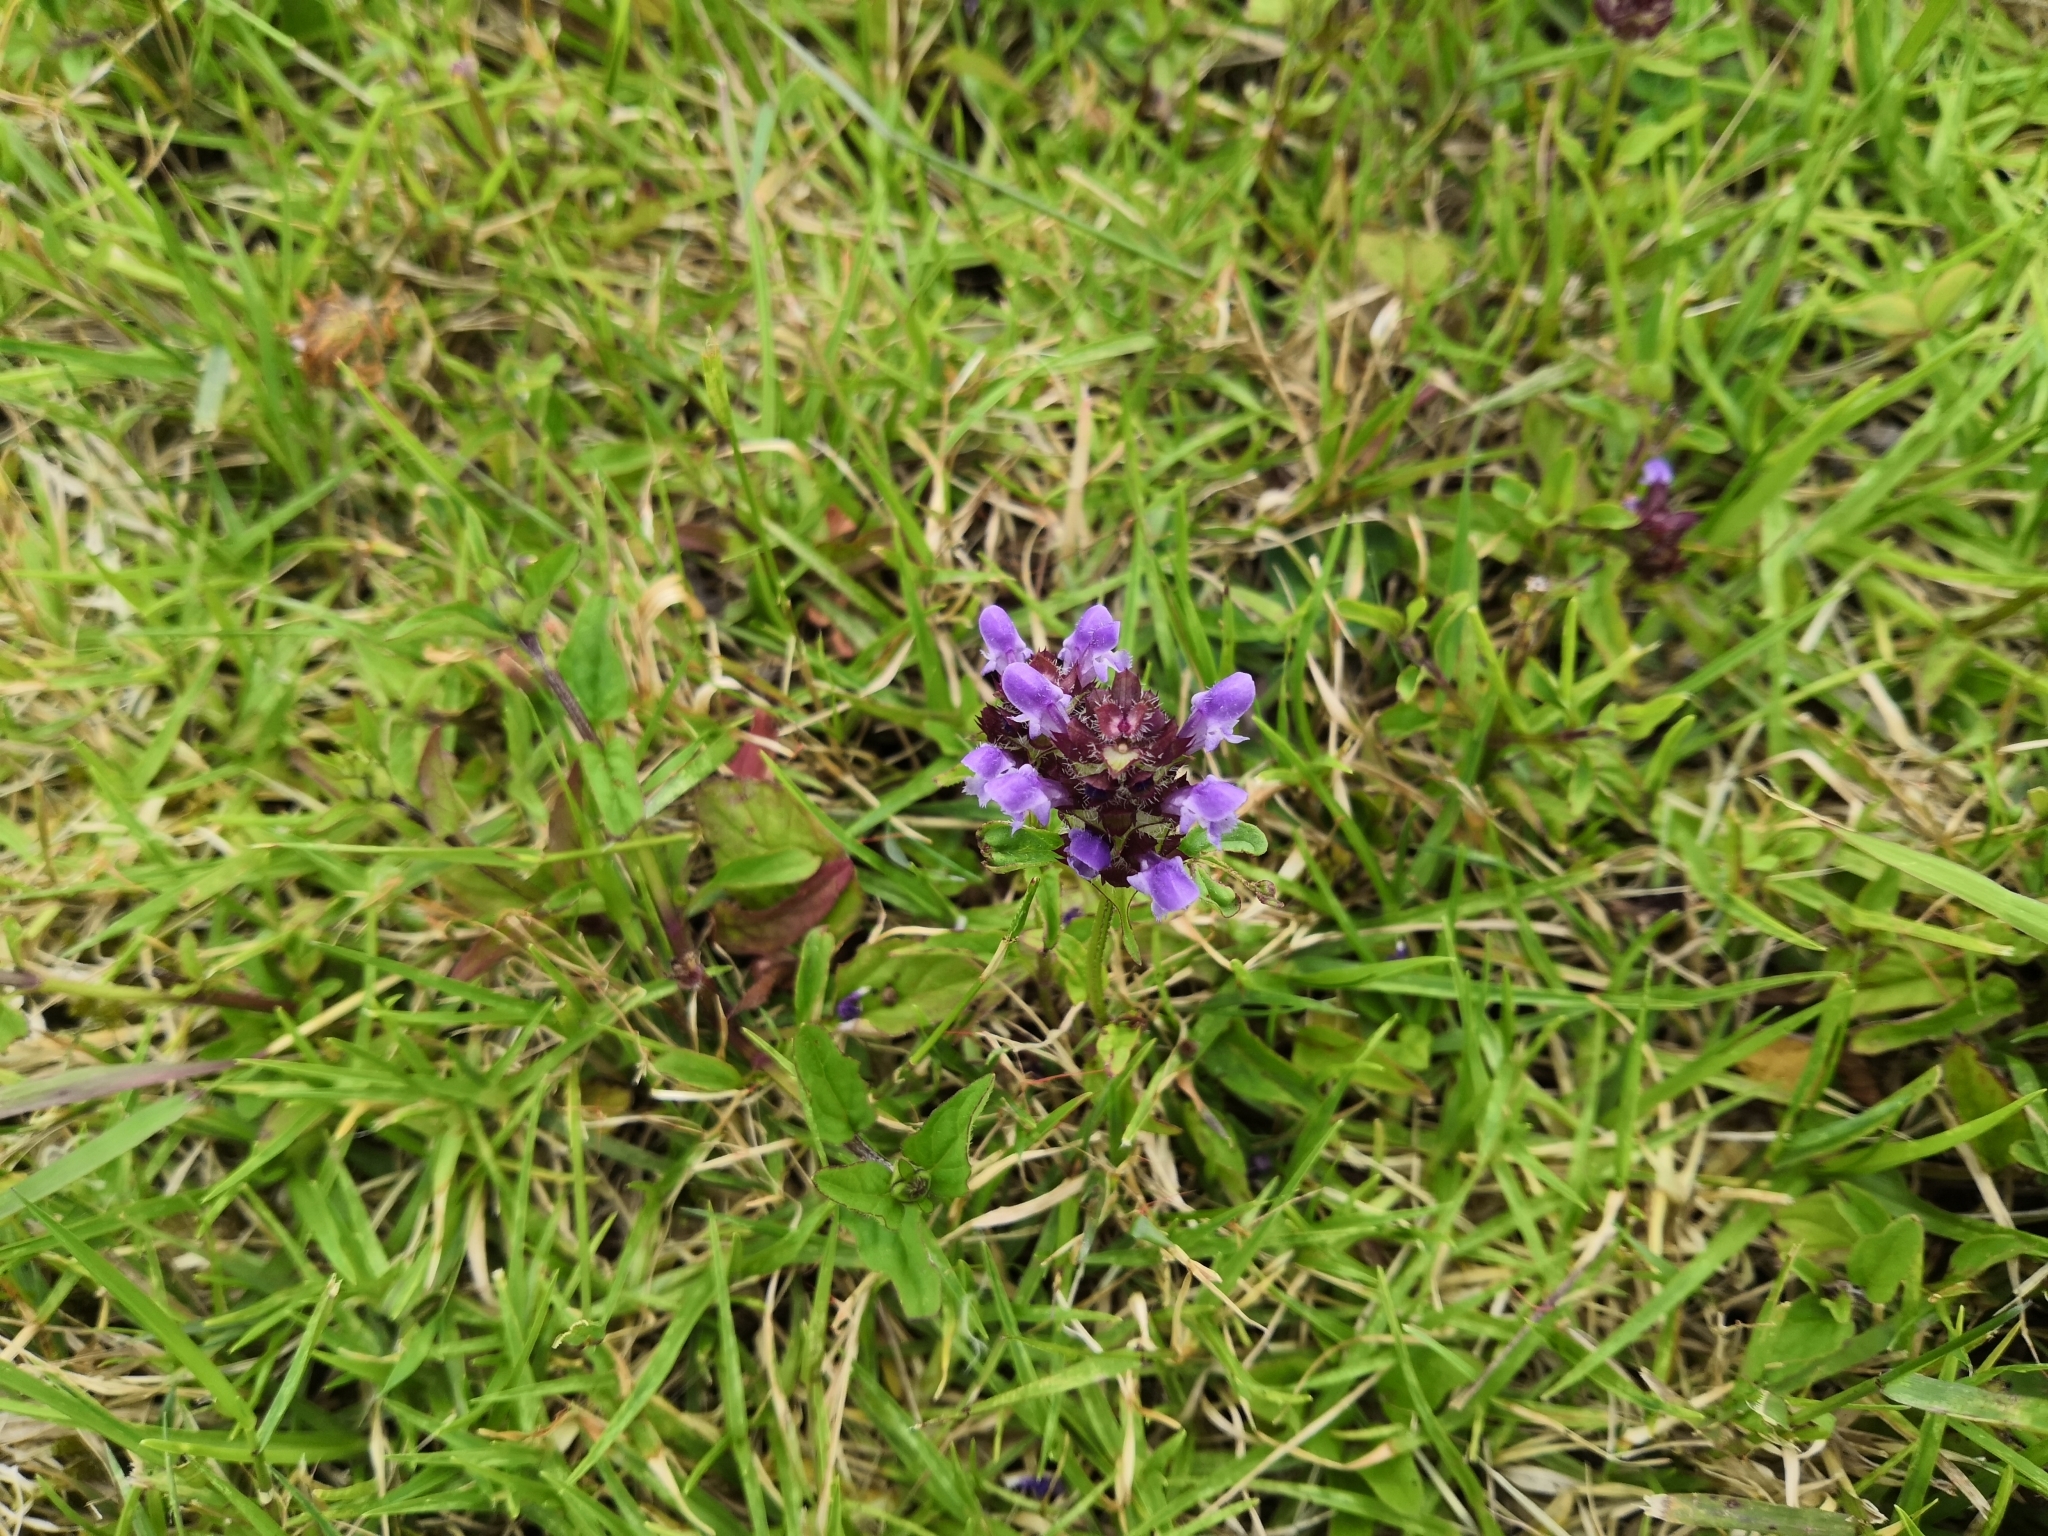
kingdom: Plantae
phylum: Tracheophyta
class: Magnoliopsida
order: Lamiales
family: Lamiaceae
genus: Prunella
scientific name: Prunella vulgaris
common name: Heal-all
